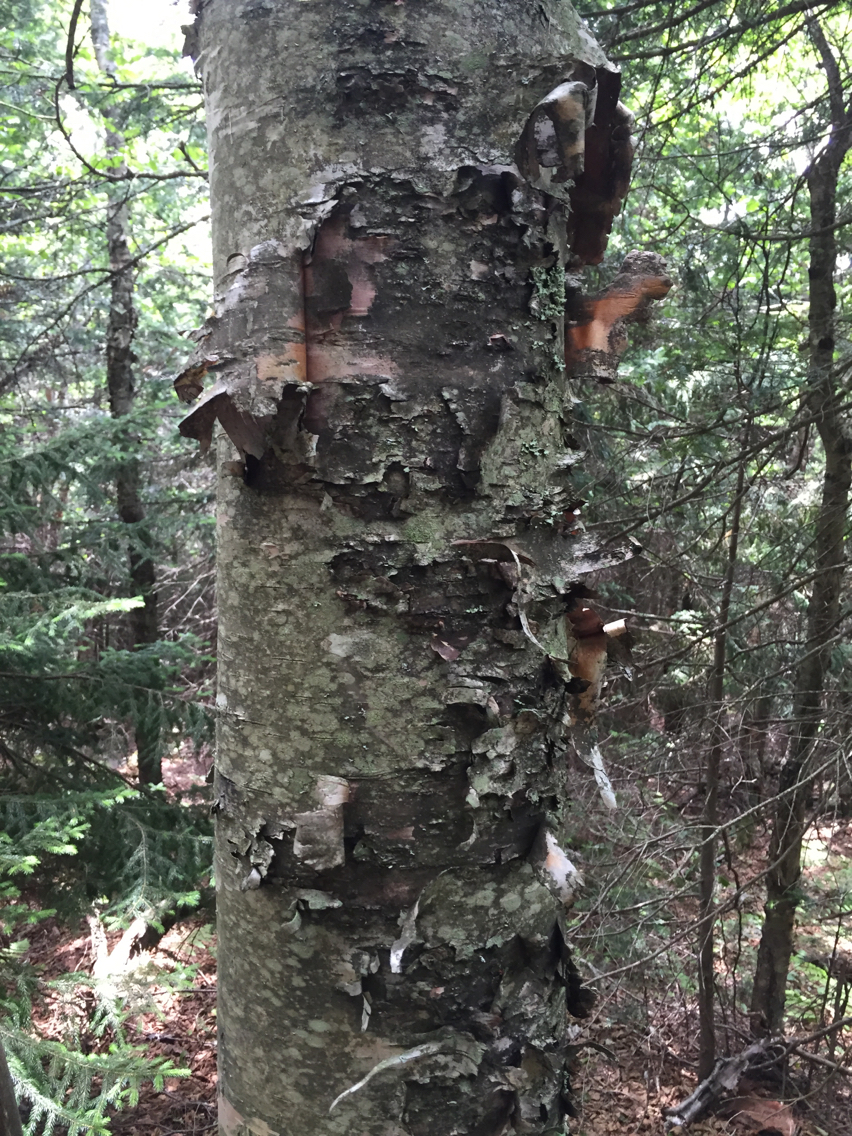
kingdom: Plantae
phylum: Tracheophyta
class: Magnoliopsida
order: Fagales
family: Betulaceae
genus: Betula
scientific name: Betula cordifolia
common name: Mountain white birch
